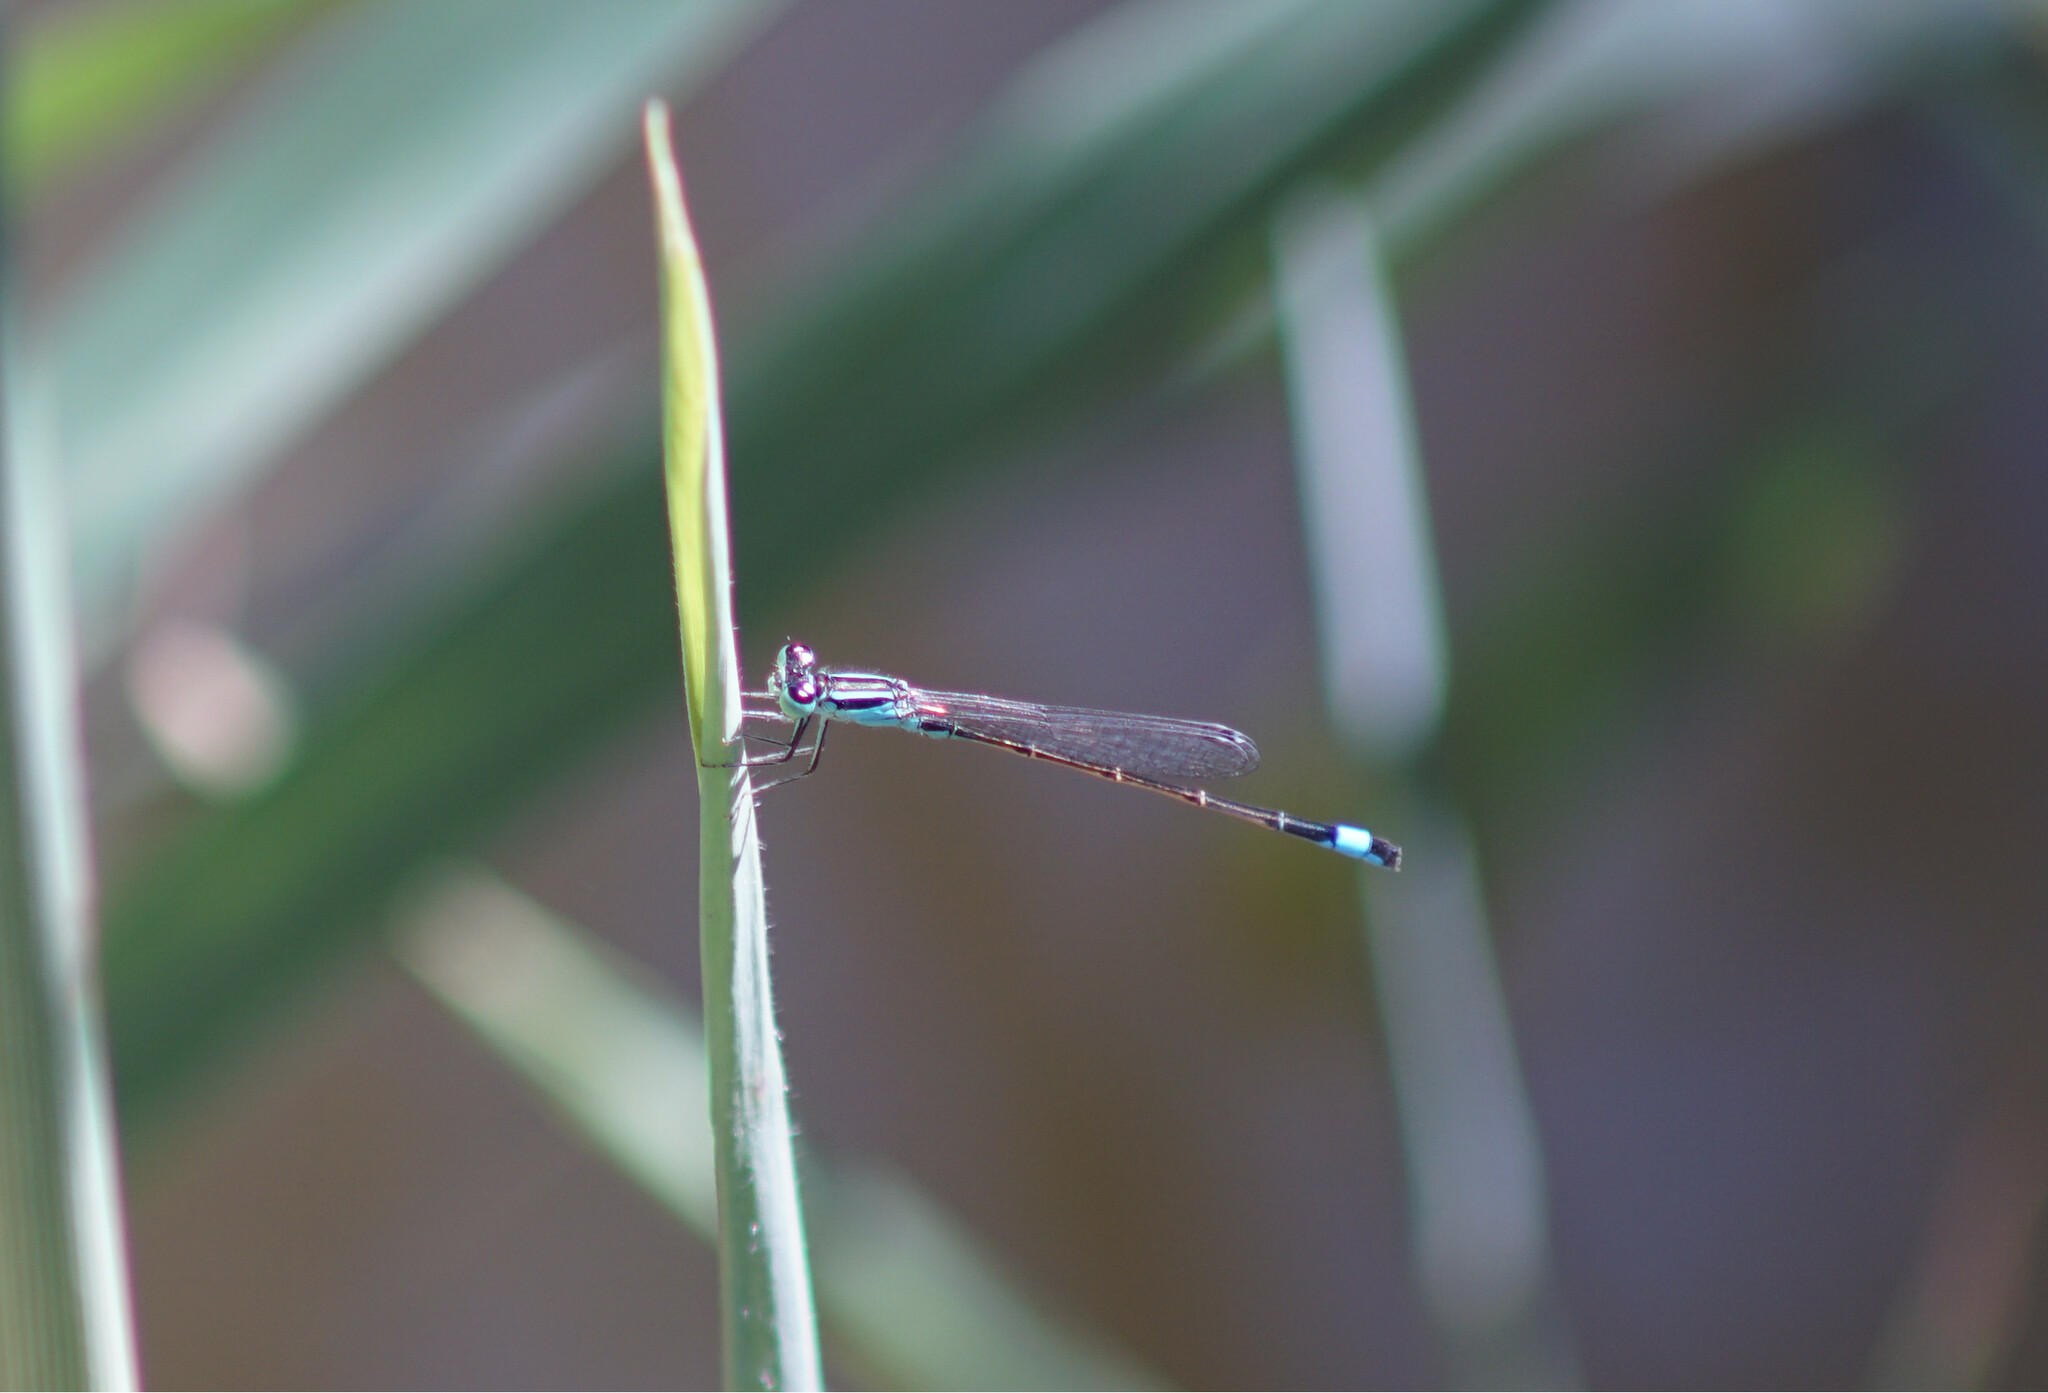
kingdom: Animalia
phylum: Arthropoda
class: Insecta
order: Odonata
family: Coenagrionidae
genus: Ischnura
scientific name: Ischnura elegans
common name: Blue-tailed damselfly
